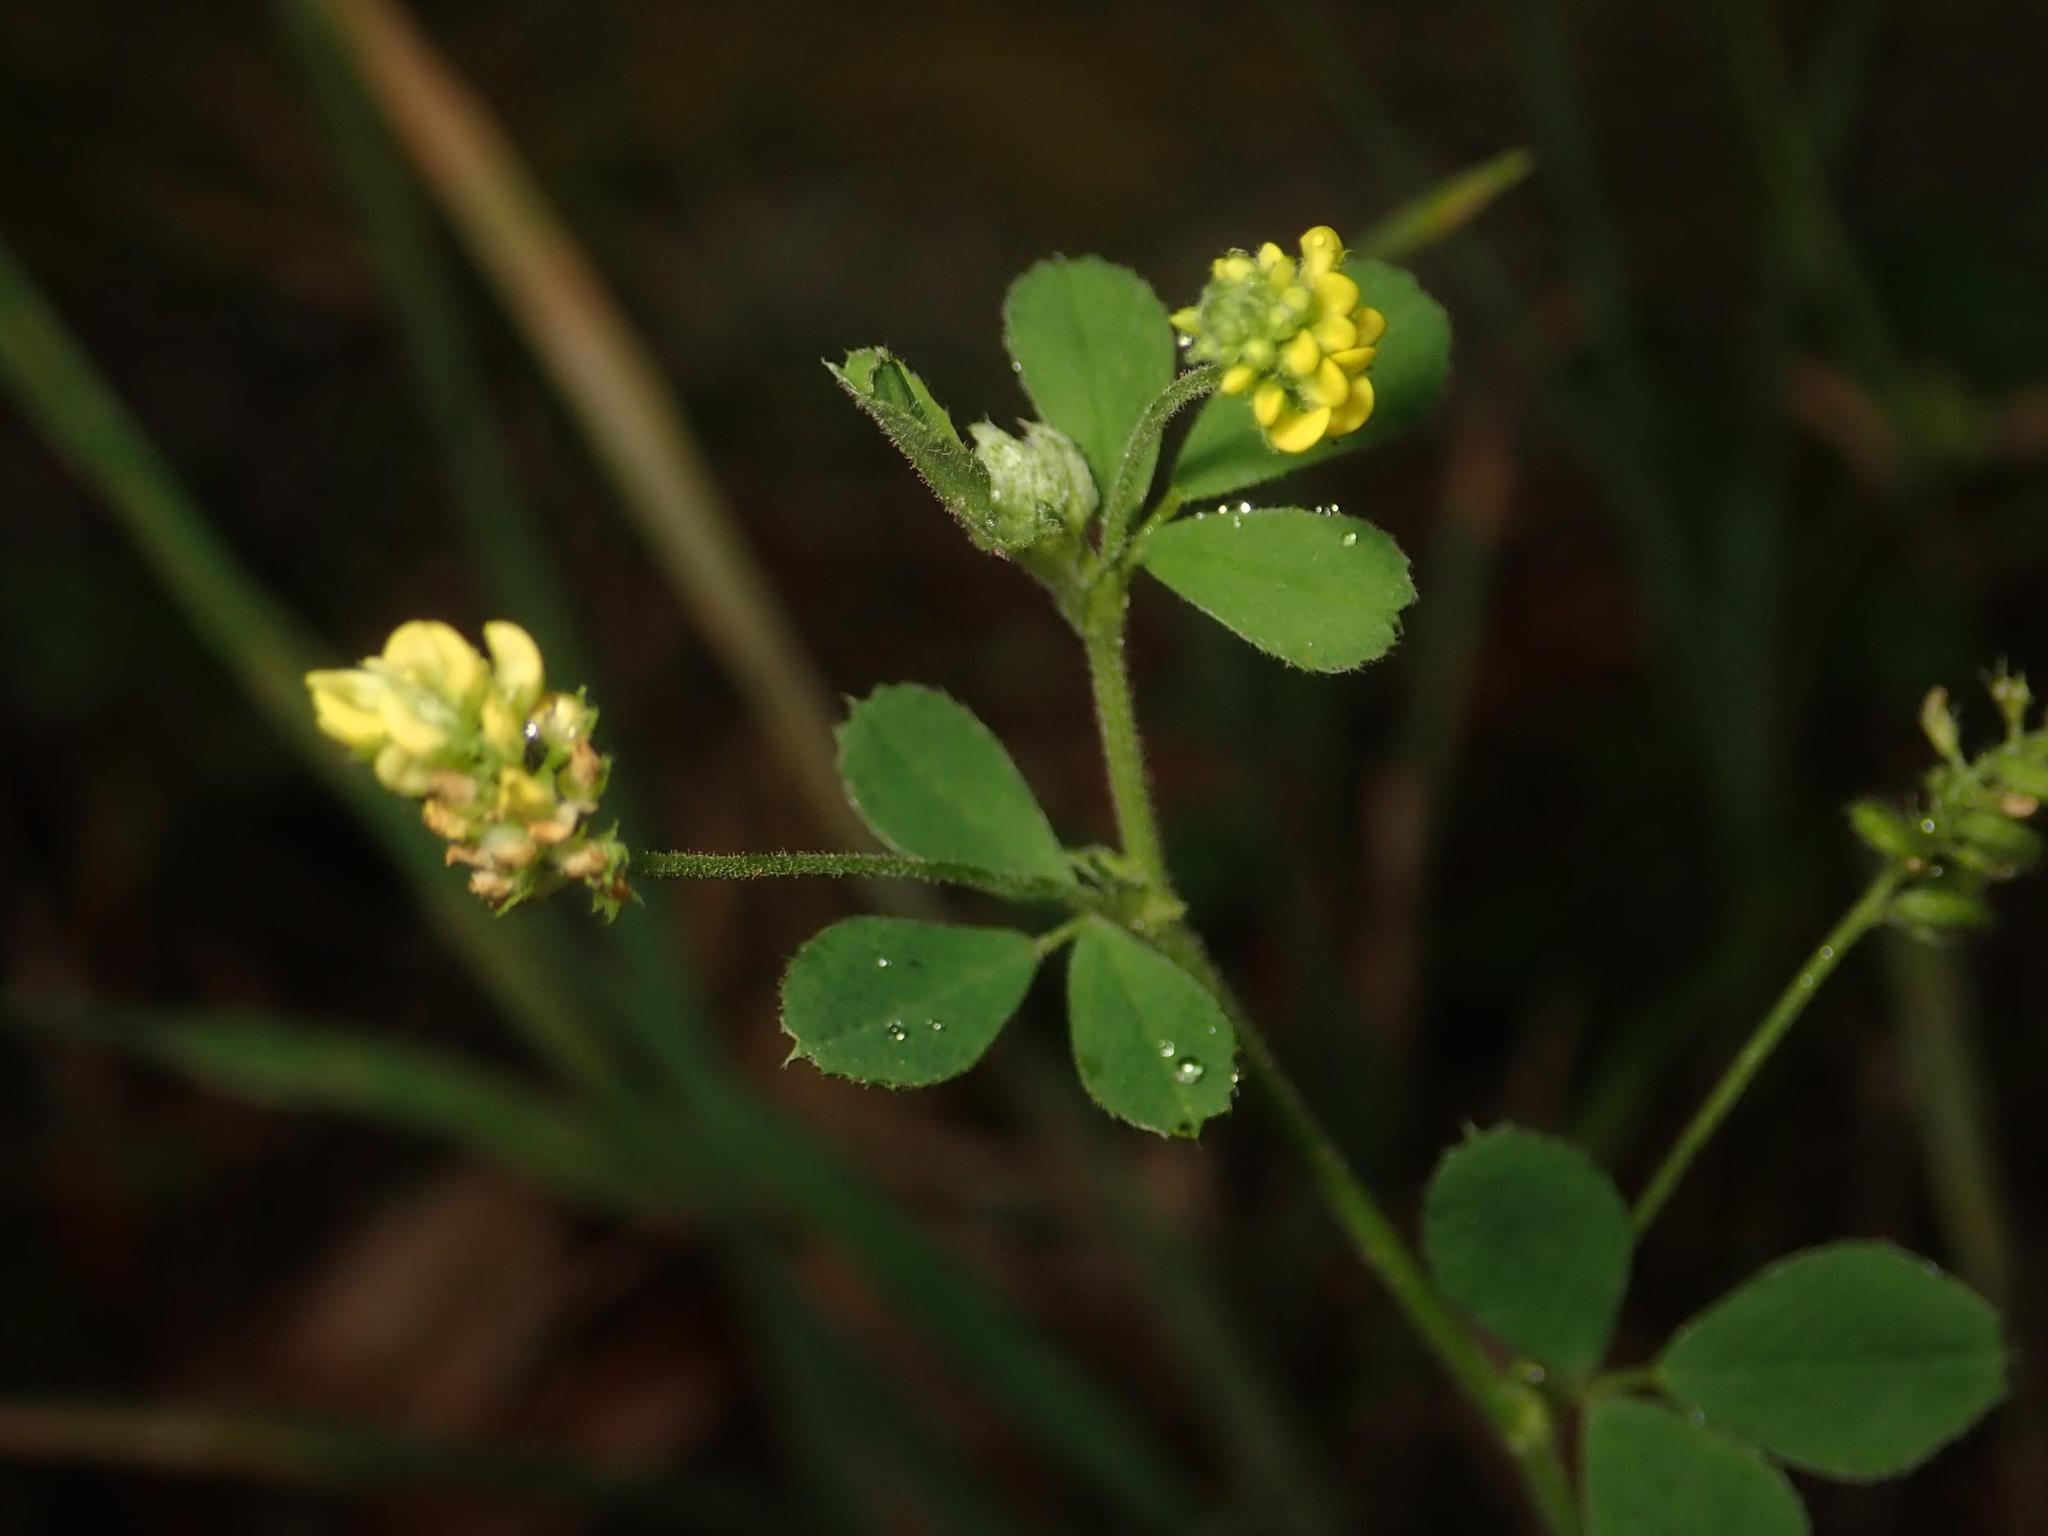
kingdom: Plantae
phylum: Tracheophyta
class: Magnoliopsida
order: Fabales
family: Fabaceae
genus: Medicago
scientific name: Medicago lupulina
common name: Black medick
